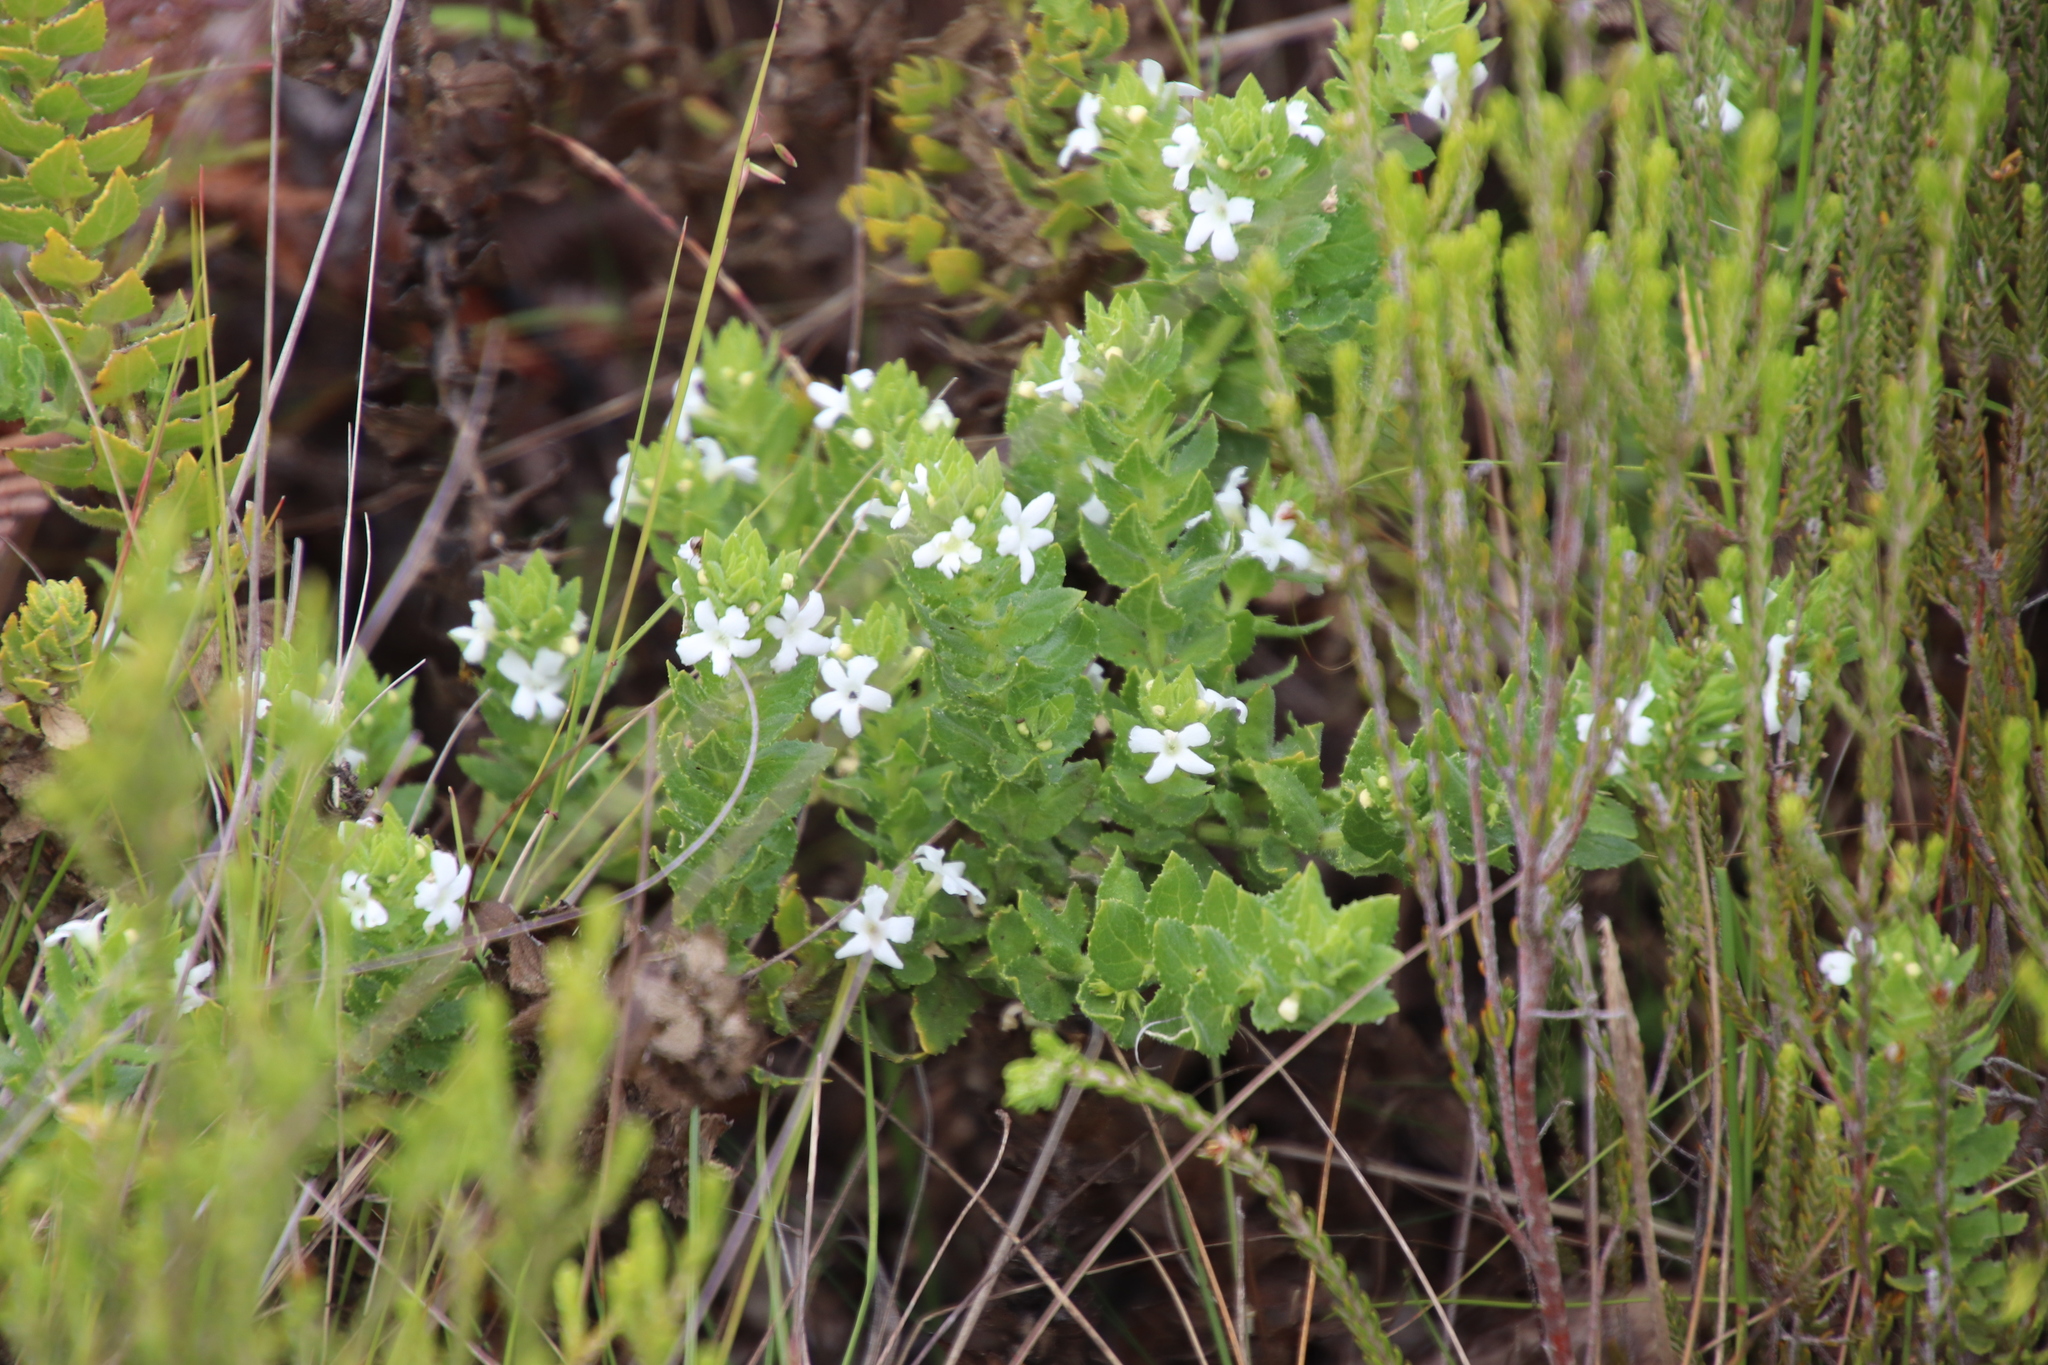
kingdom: Plantae
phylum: Tracheophyta
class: Magnoliopsida
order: Lamiales
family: Scrophulariaceae
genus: Oftia
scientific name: Oftia africana
